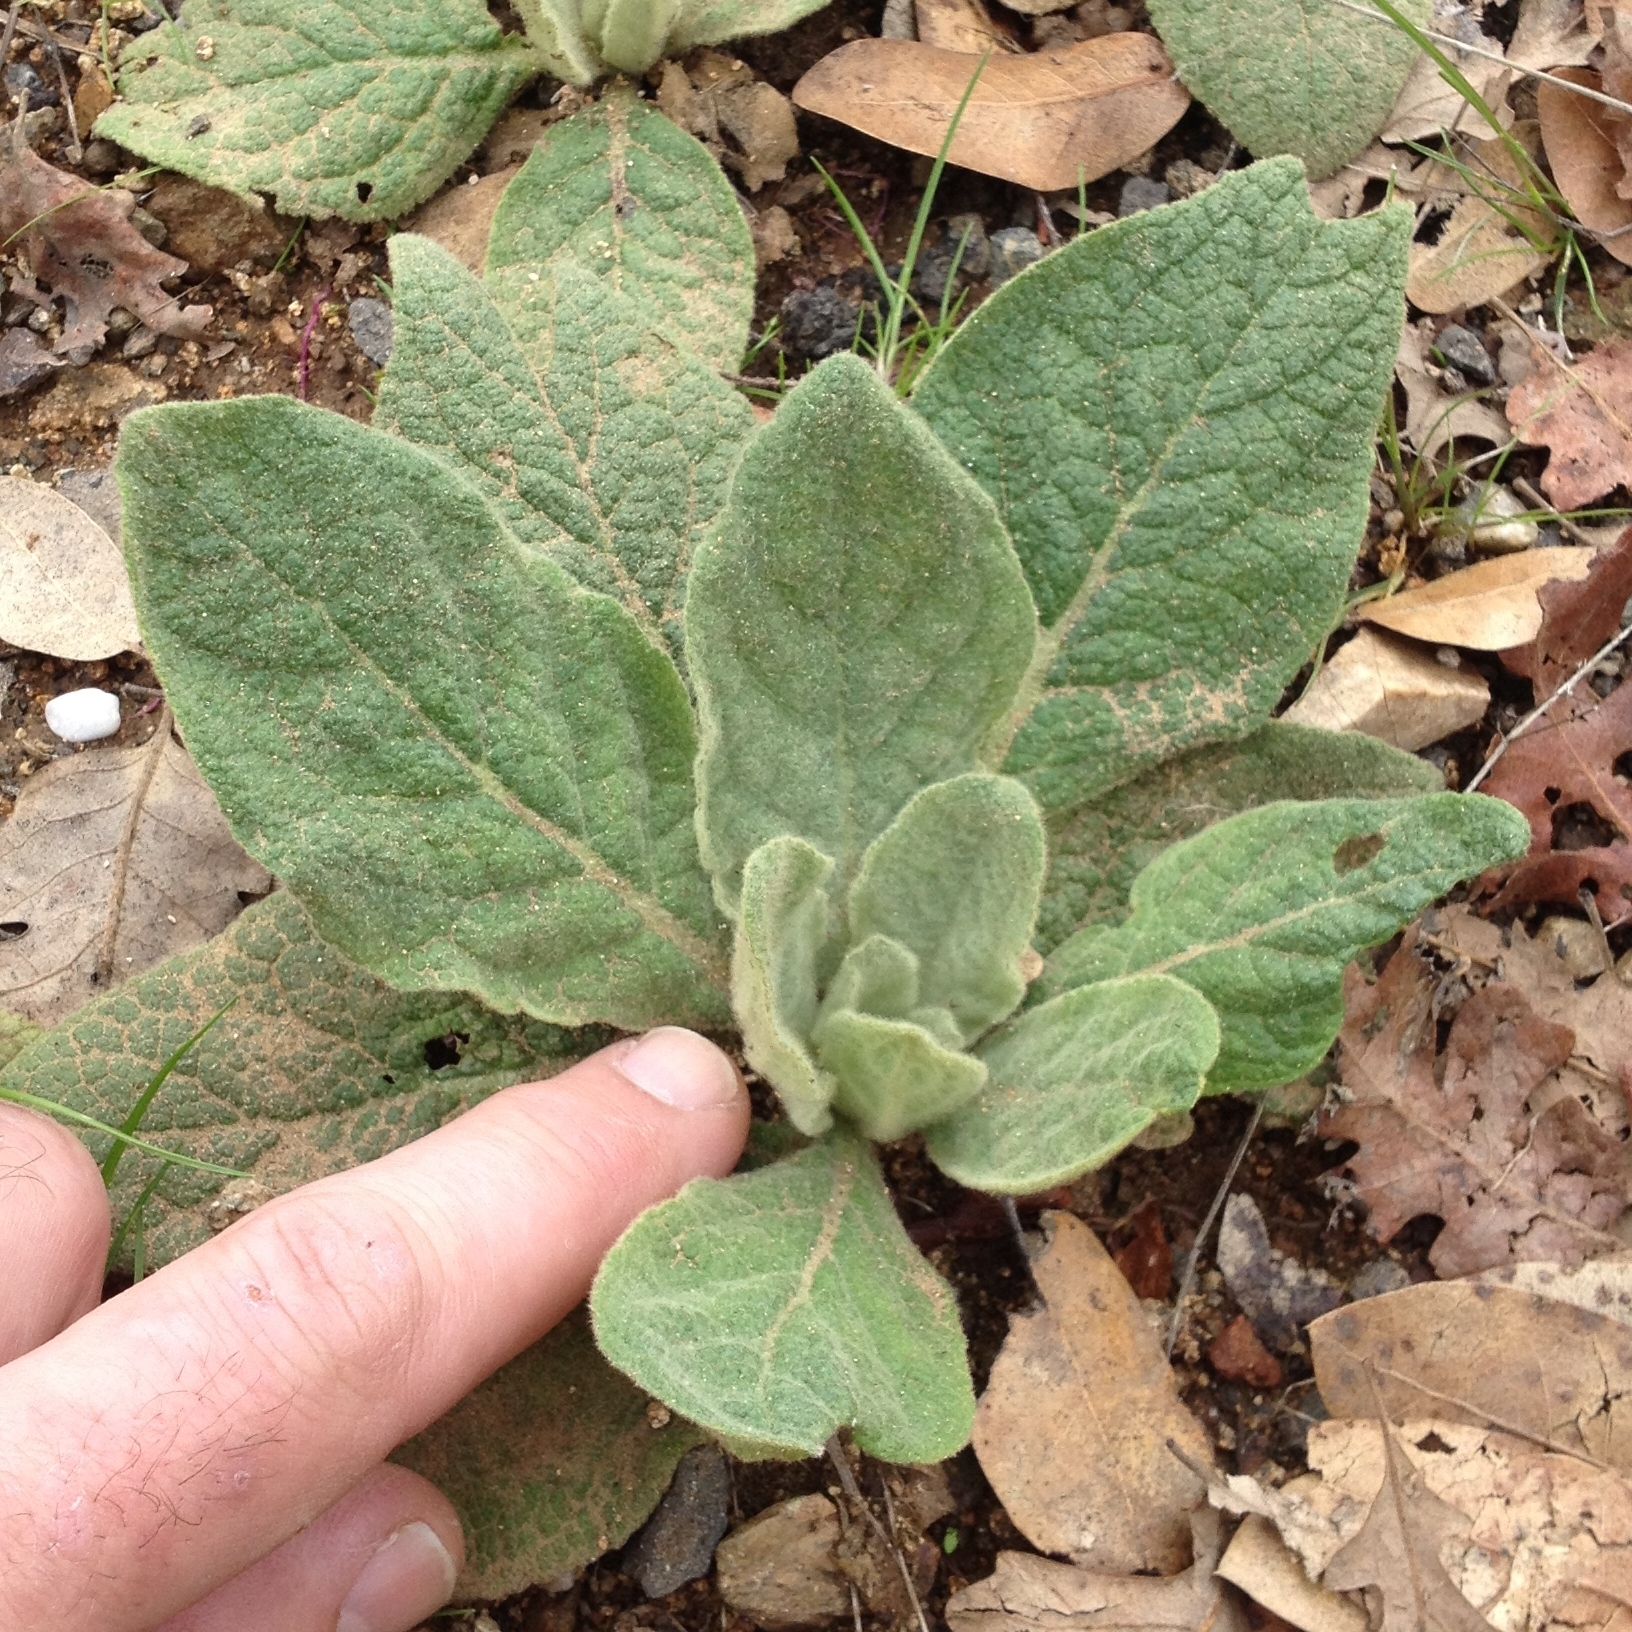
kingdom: Plantae
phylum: Tracheophyta
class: Magnoliopsida
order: Lamiales
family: Scrophulariaceae
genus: Verbascum
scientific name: Verbascum thapsus
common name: Common mullein
